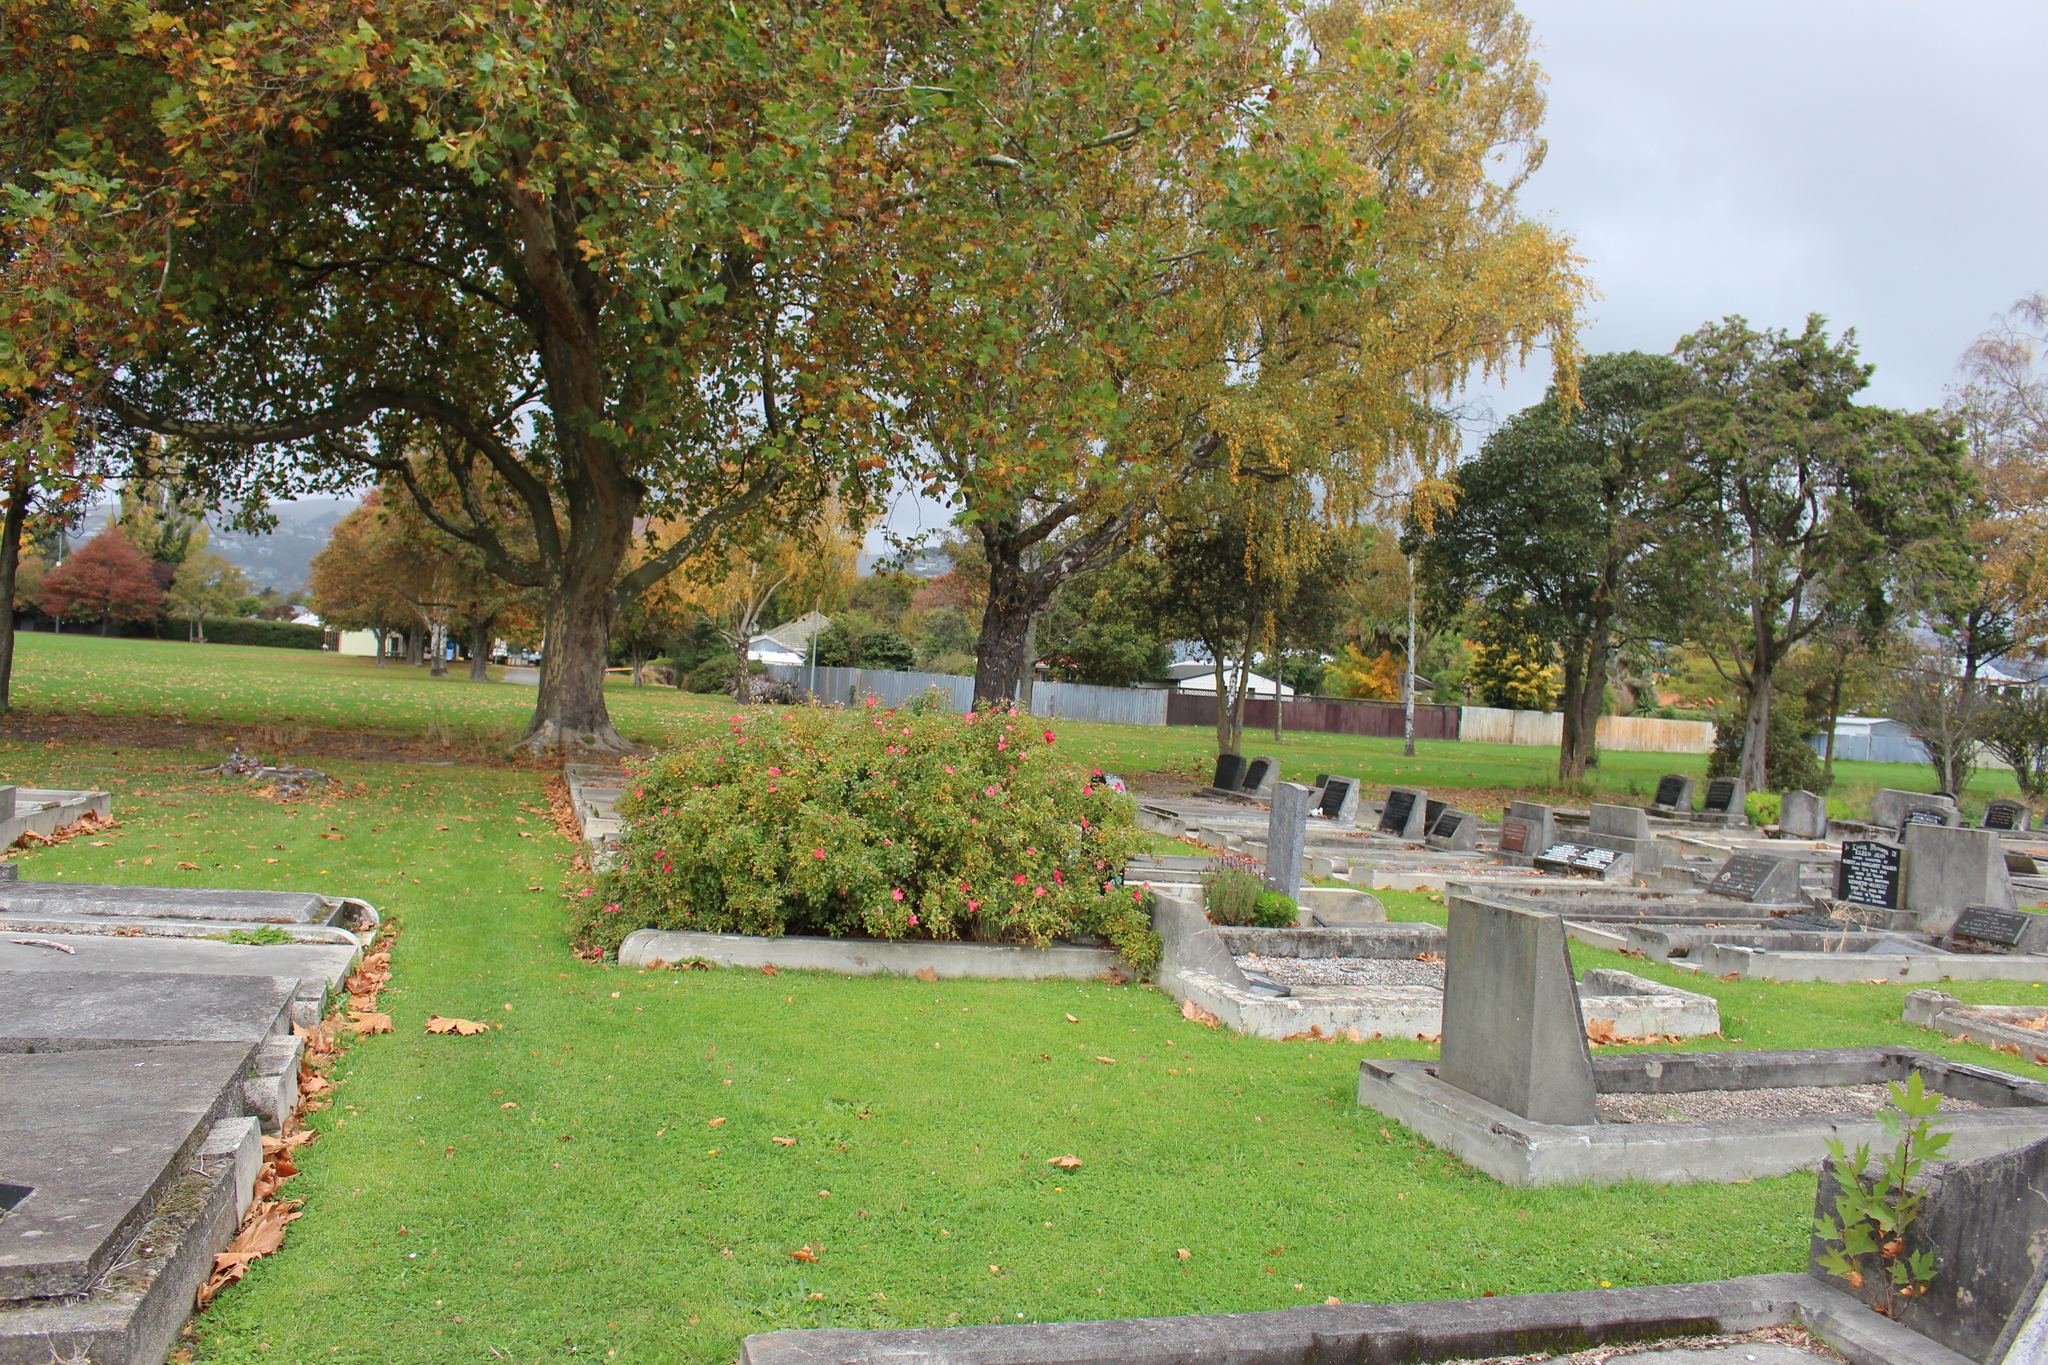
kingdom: Plantae
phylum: Tracheophyta
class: Magnoliopsida
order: Proteales
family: Platanaceae
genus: Platanus
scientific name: Platanus hispanica
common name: London plane
